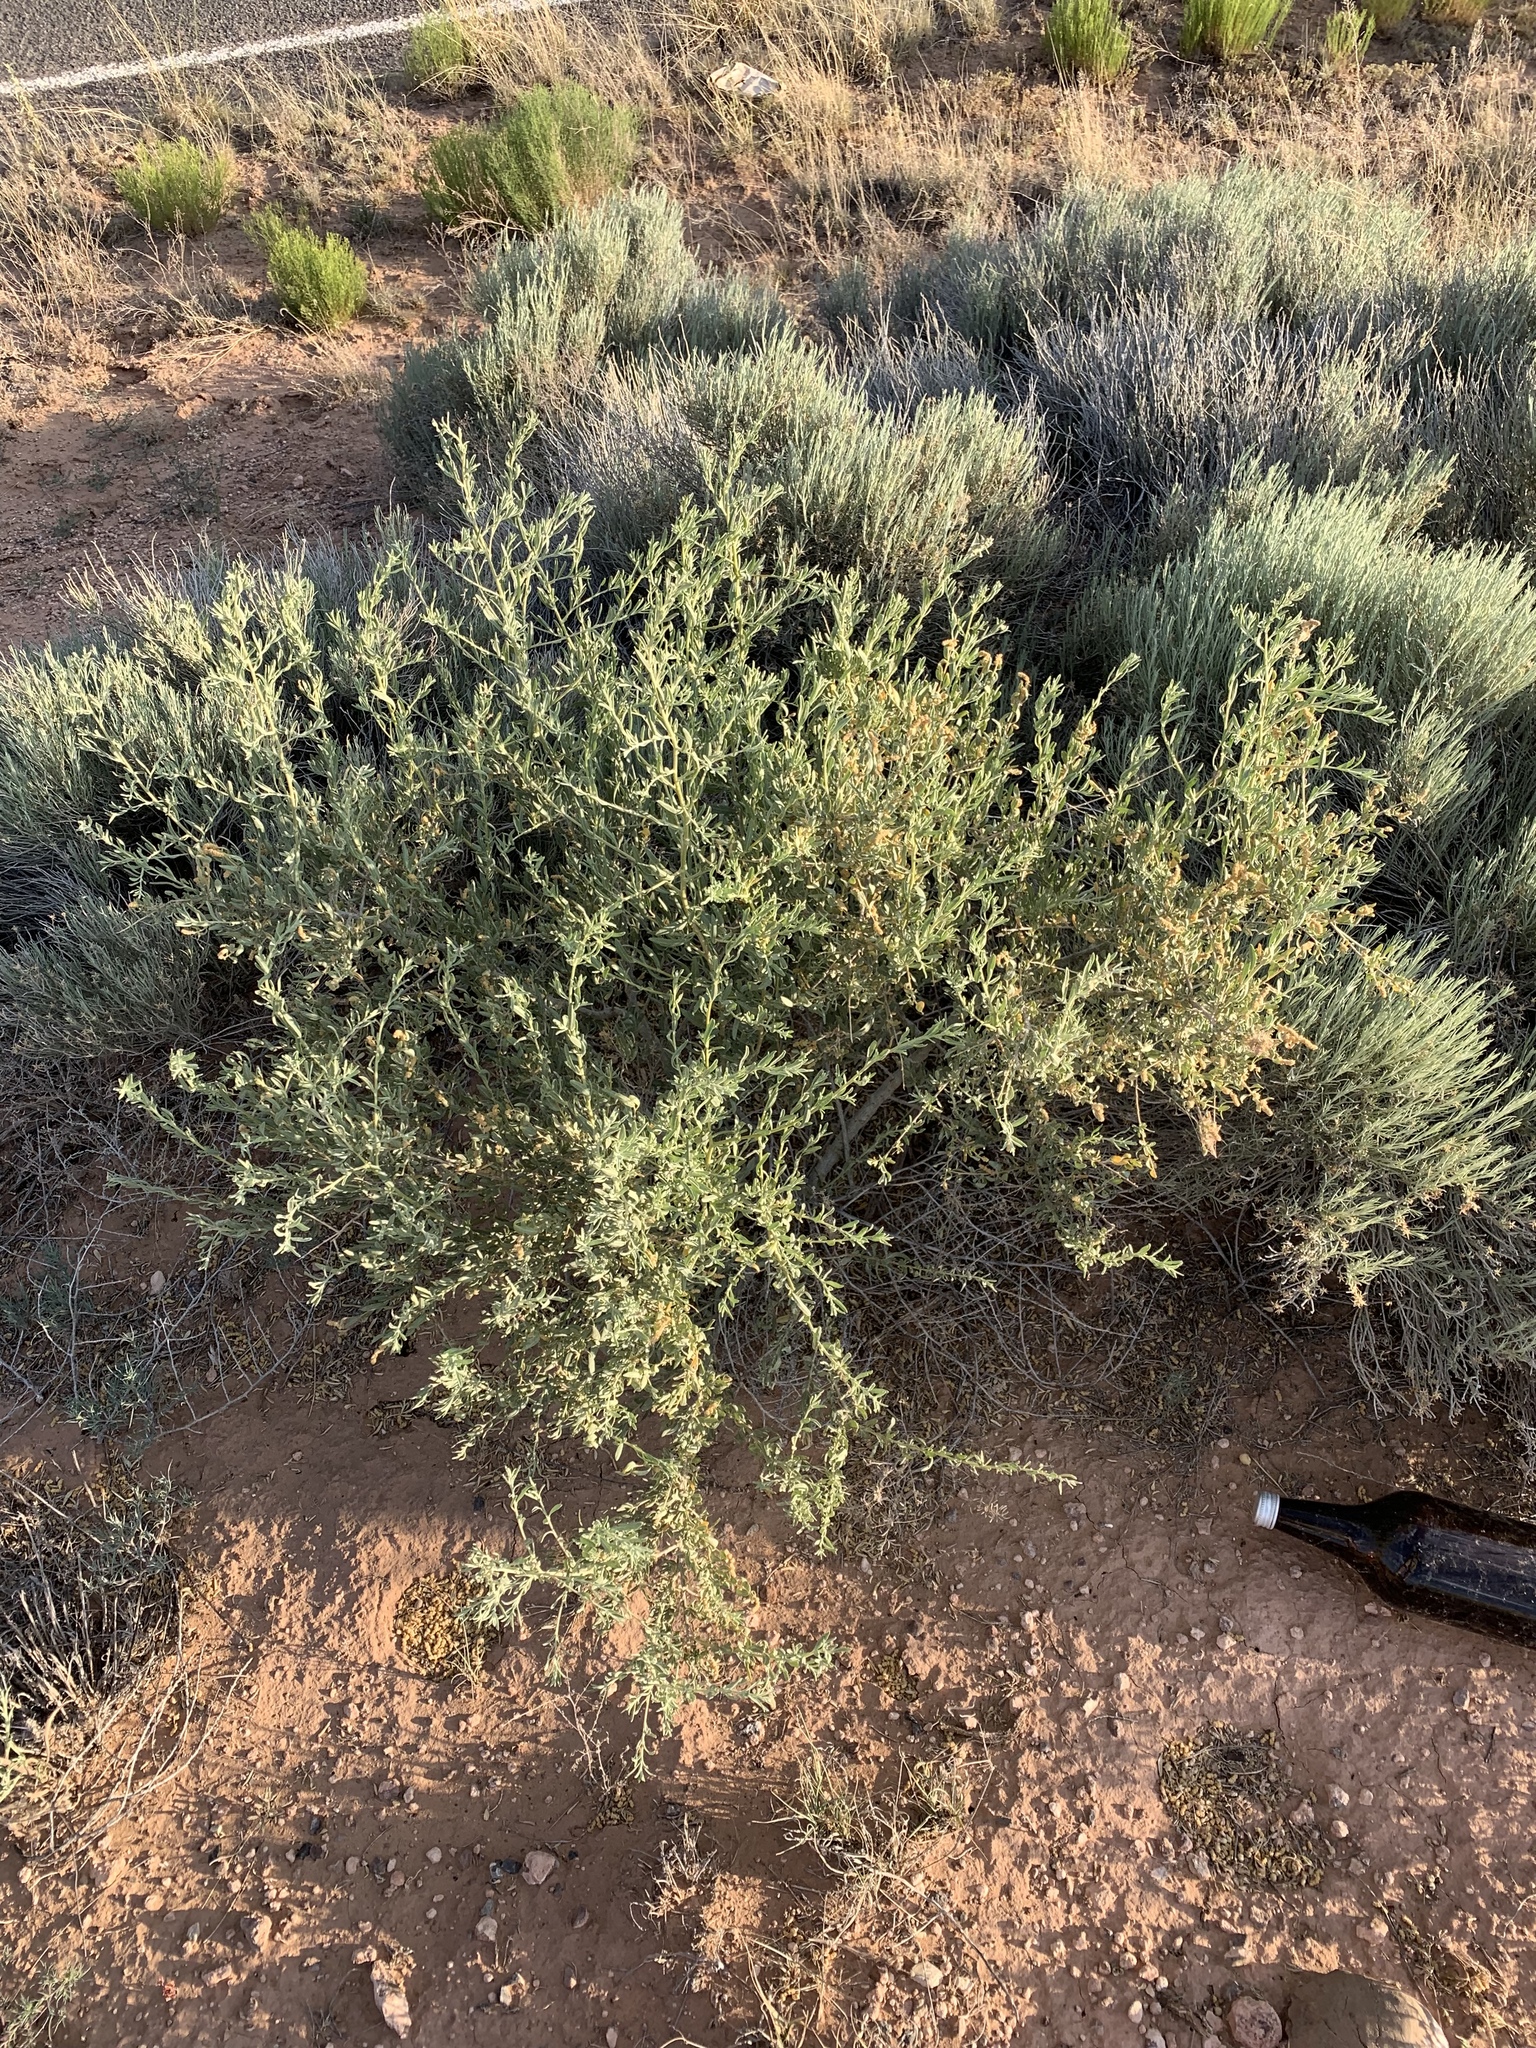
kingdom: Plantae
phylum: Tracheophyta
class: Magnoliopsida
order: Caryophyllales
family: Amaranthaceae
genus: Atriplex
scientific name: Atriplex canescens
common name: Four-wing saltbush
